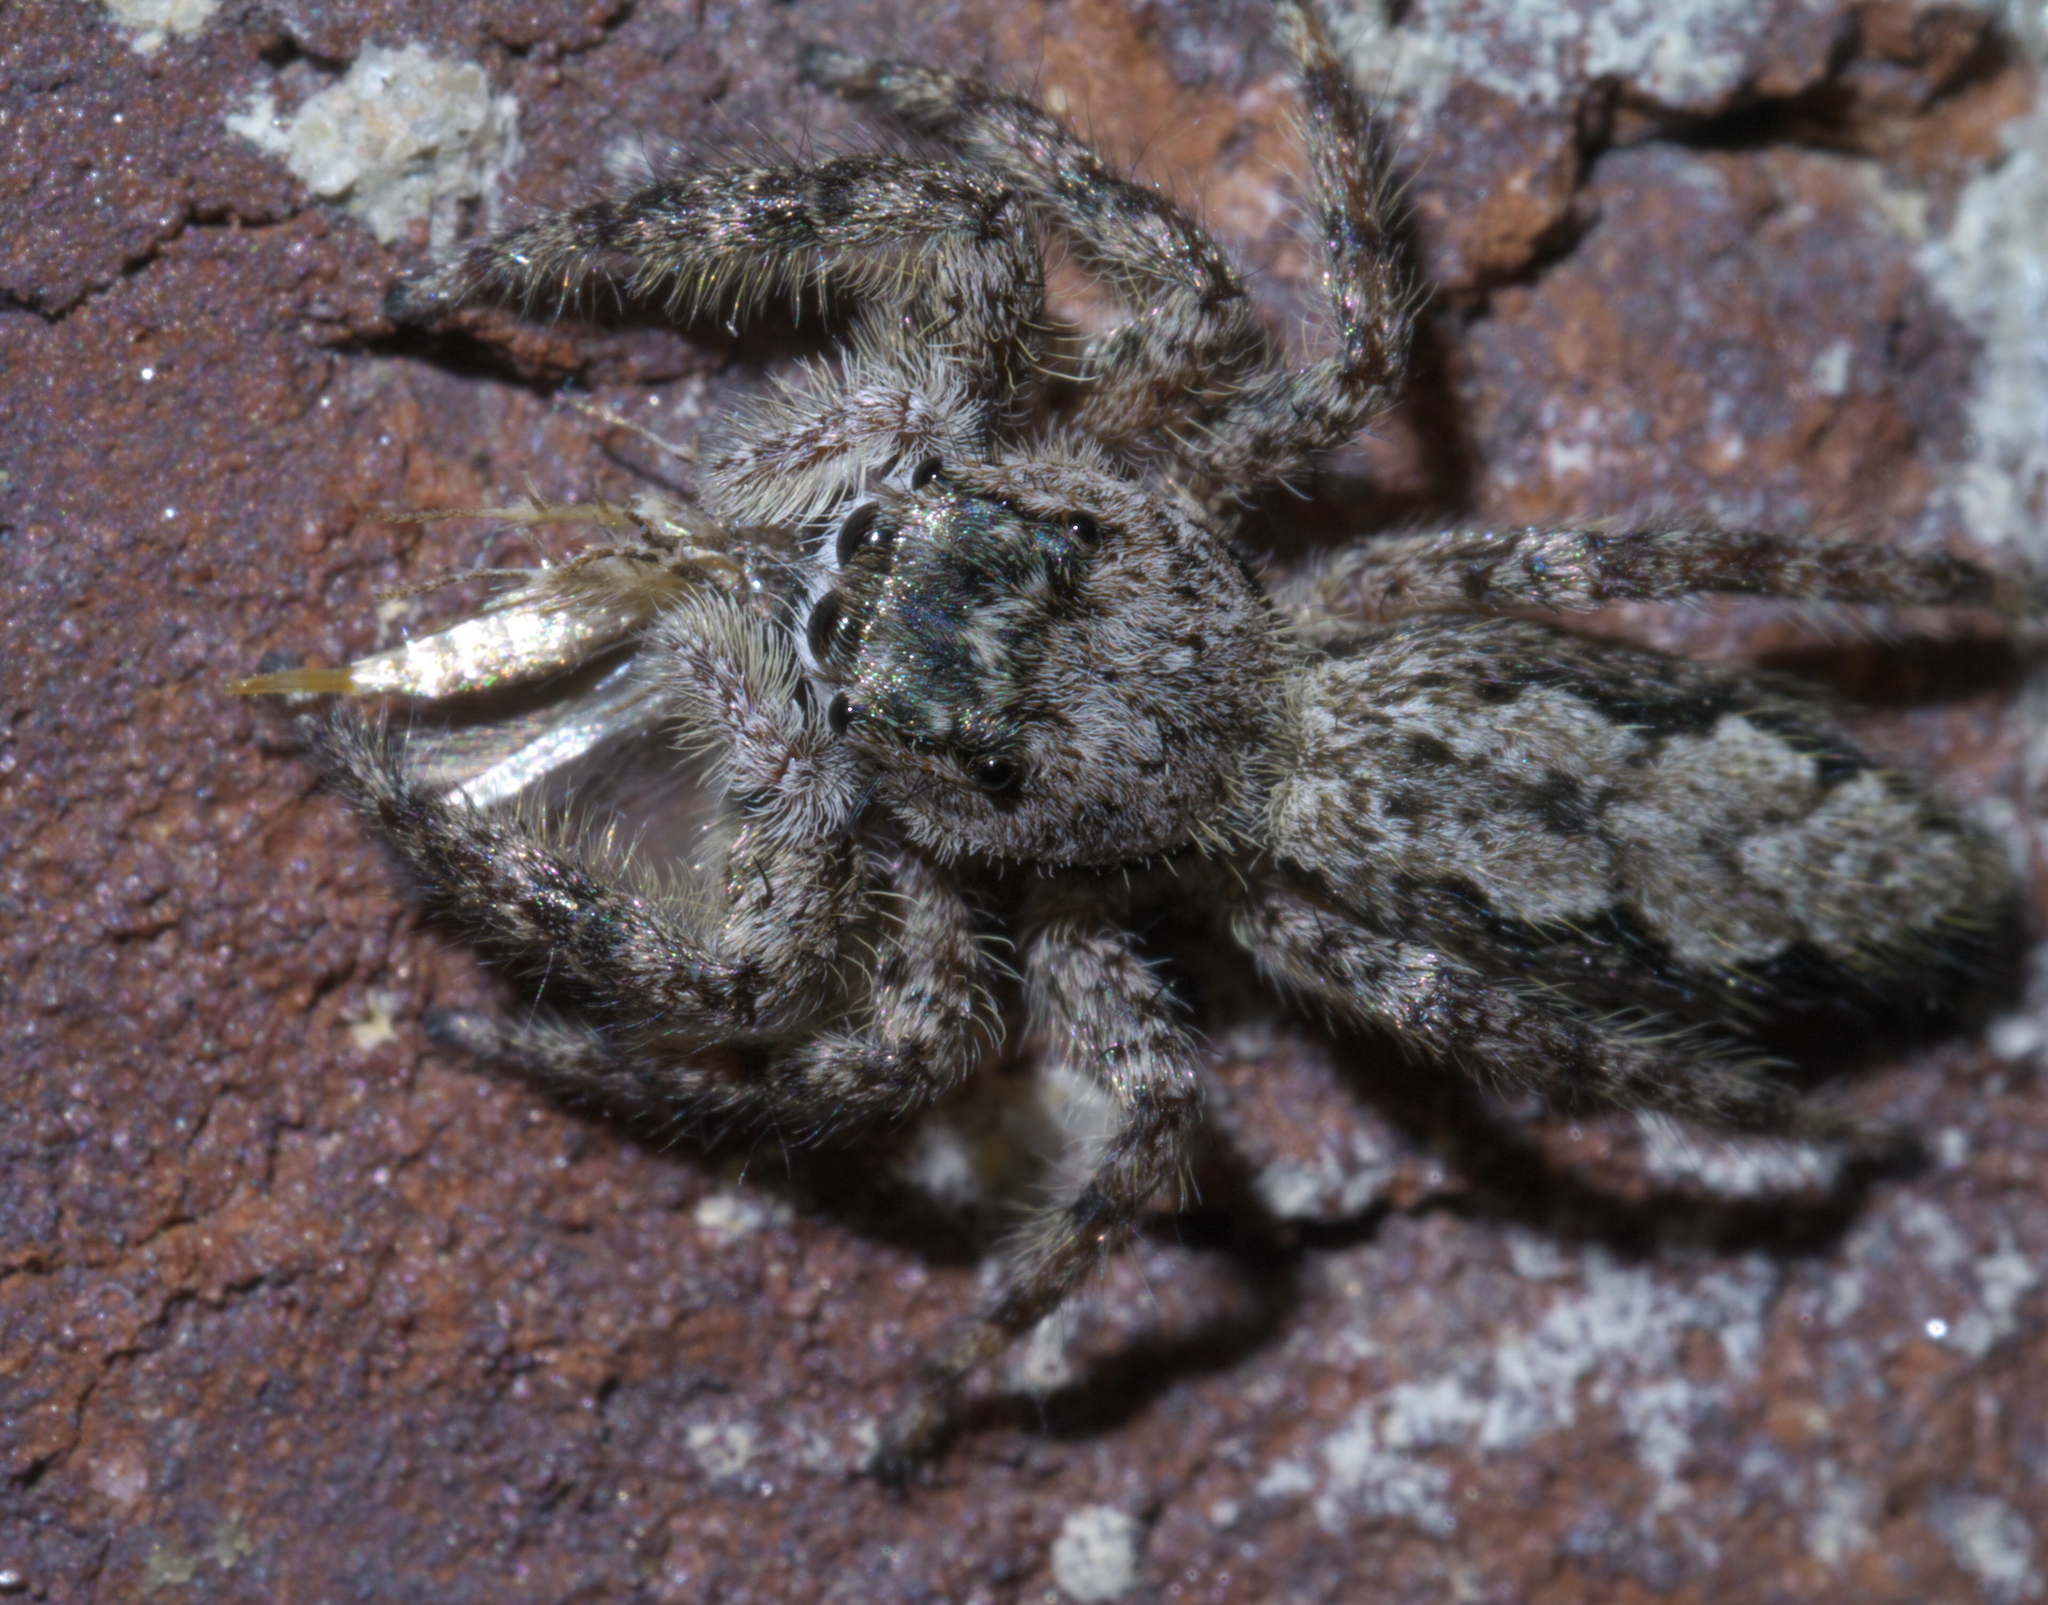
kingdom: Animalia
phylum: Arthropoda
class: Arachnida
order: Araneae
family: Salticidae
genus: Platycryptus
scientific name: Platycryptus undatus
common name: Tan jumping spider
